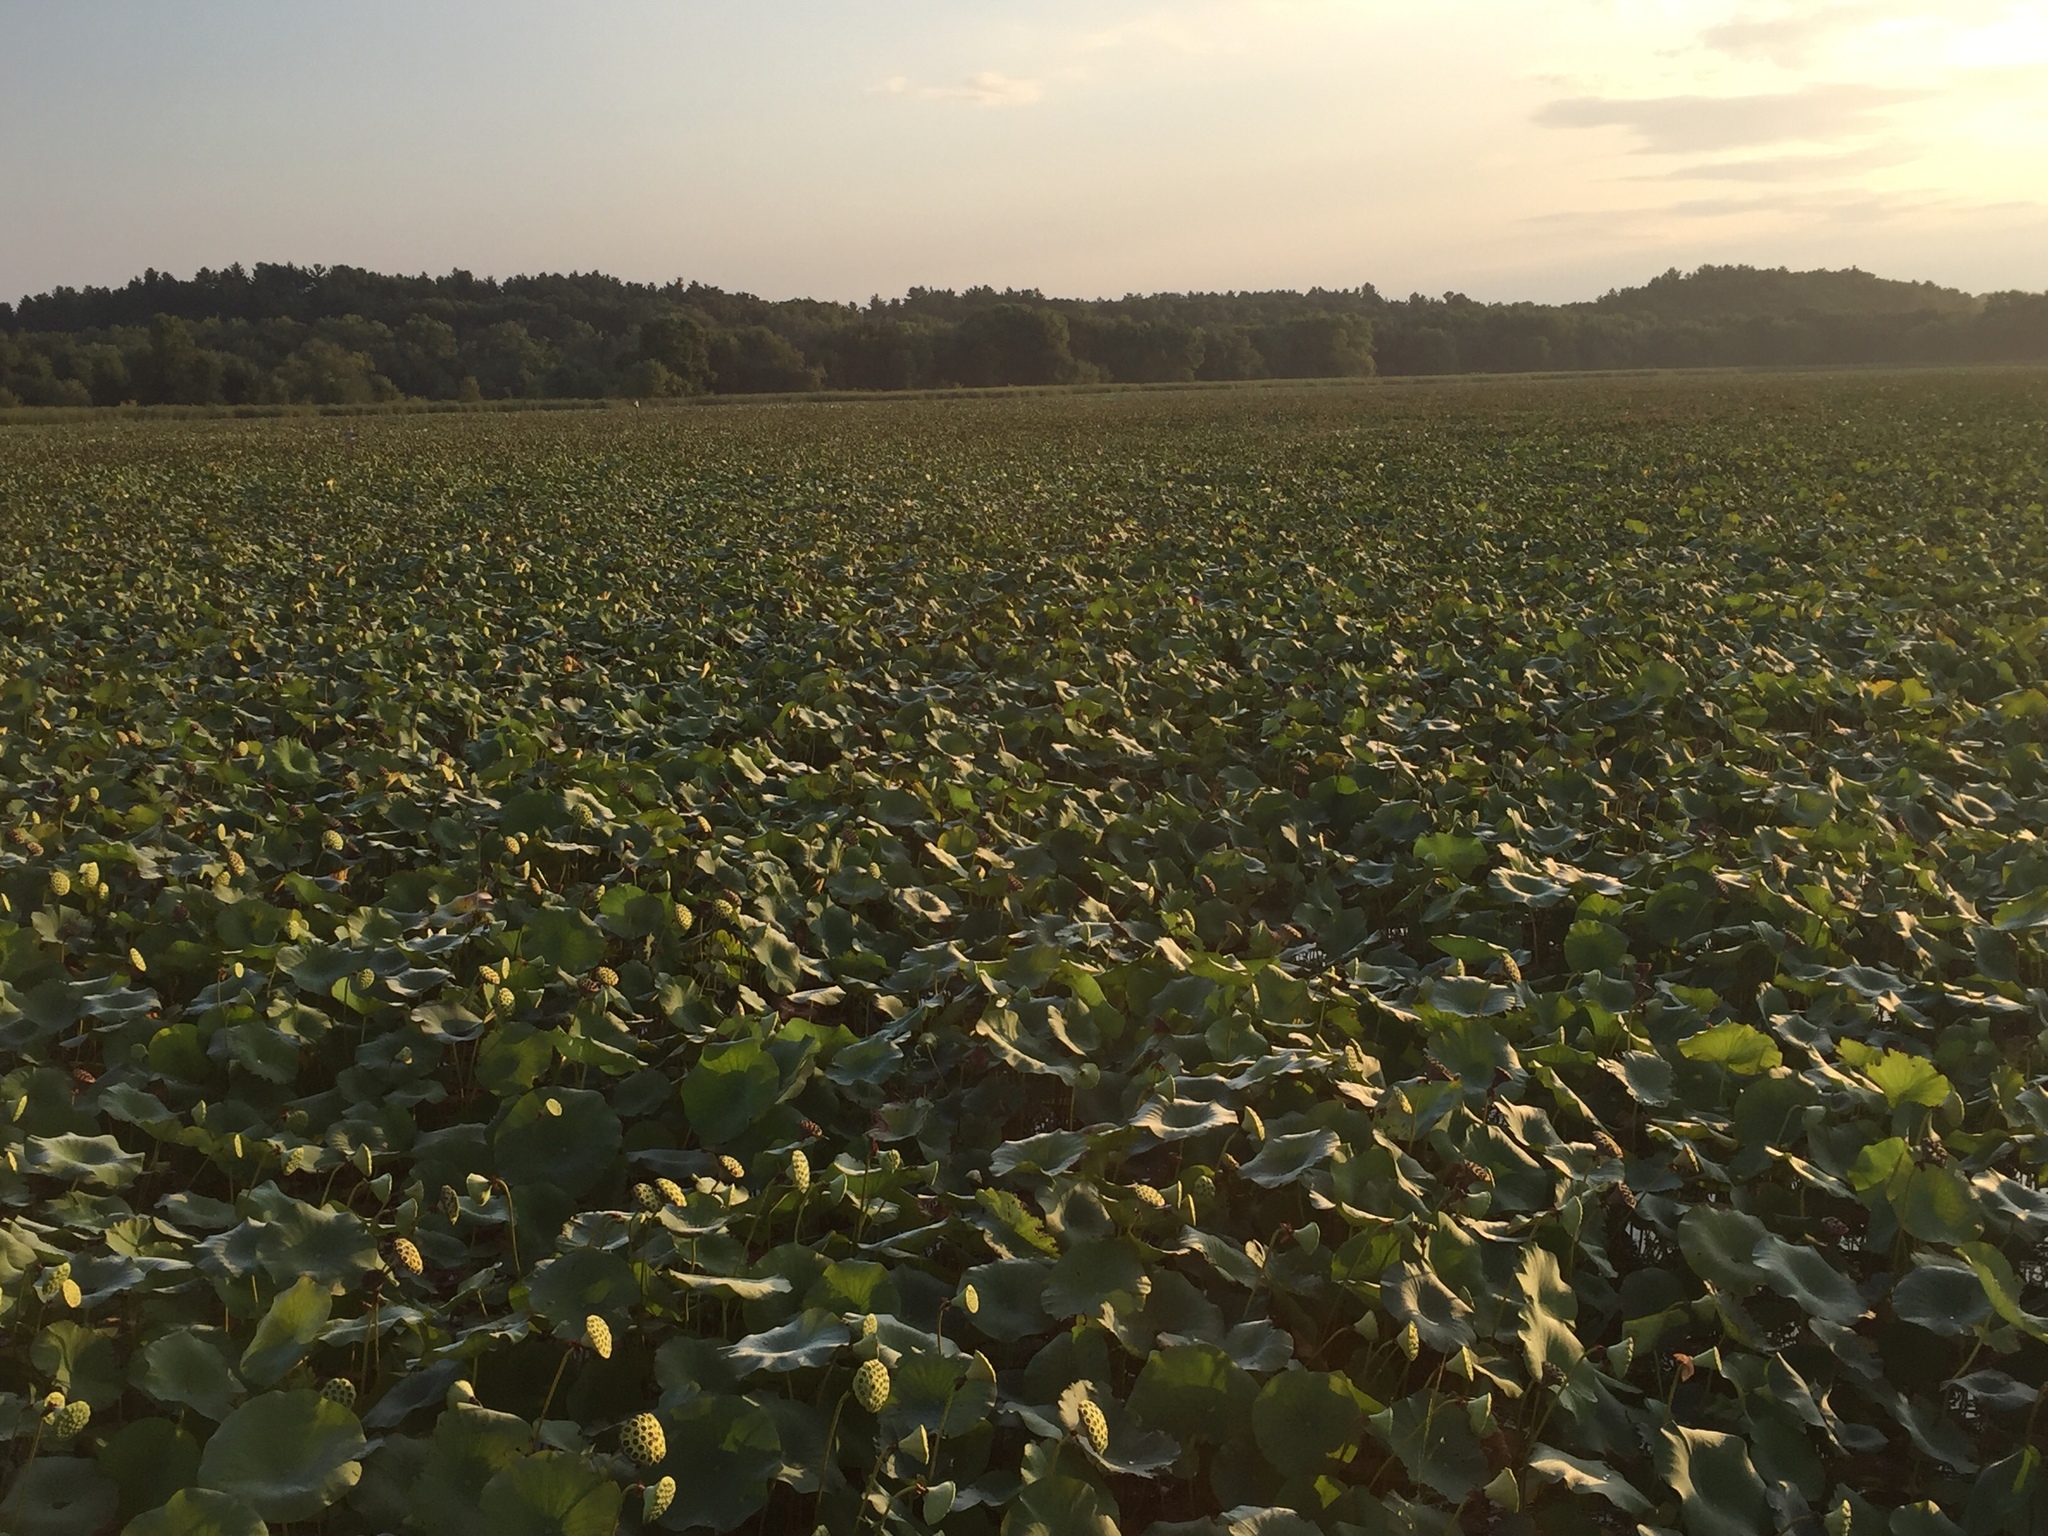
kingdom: Plantae
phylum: Tracheophyta
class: Magnoliopsida
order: Proteales
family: Nelumbonaceae
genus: Nelumbo
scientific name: Nelumbo lutea
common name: American lotus
